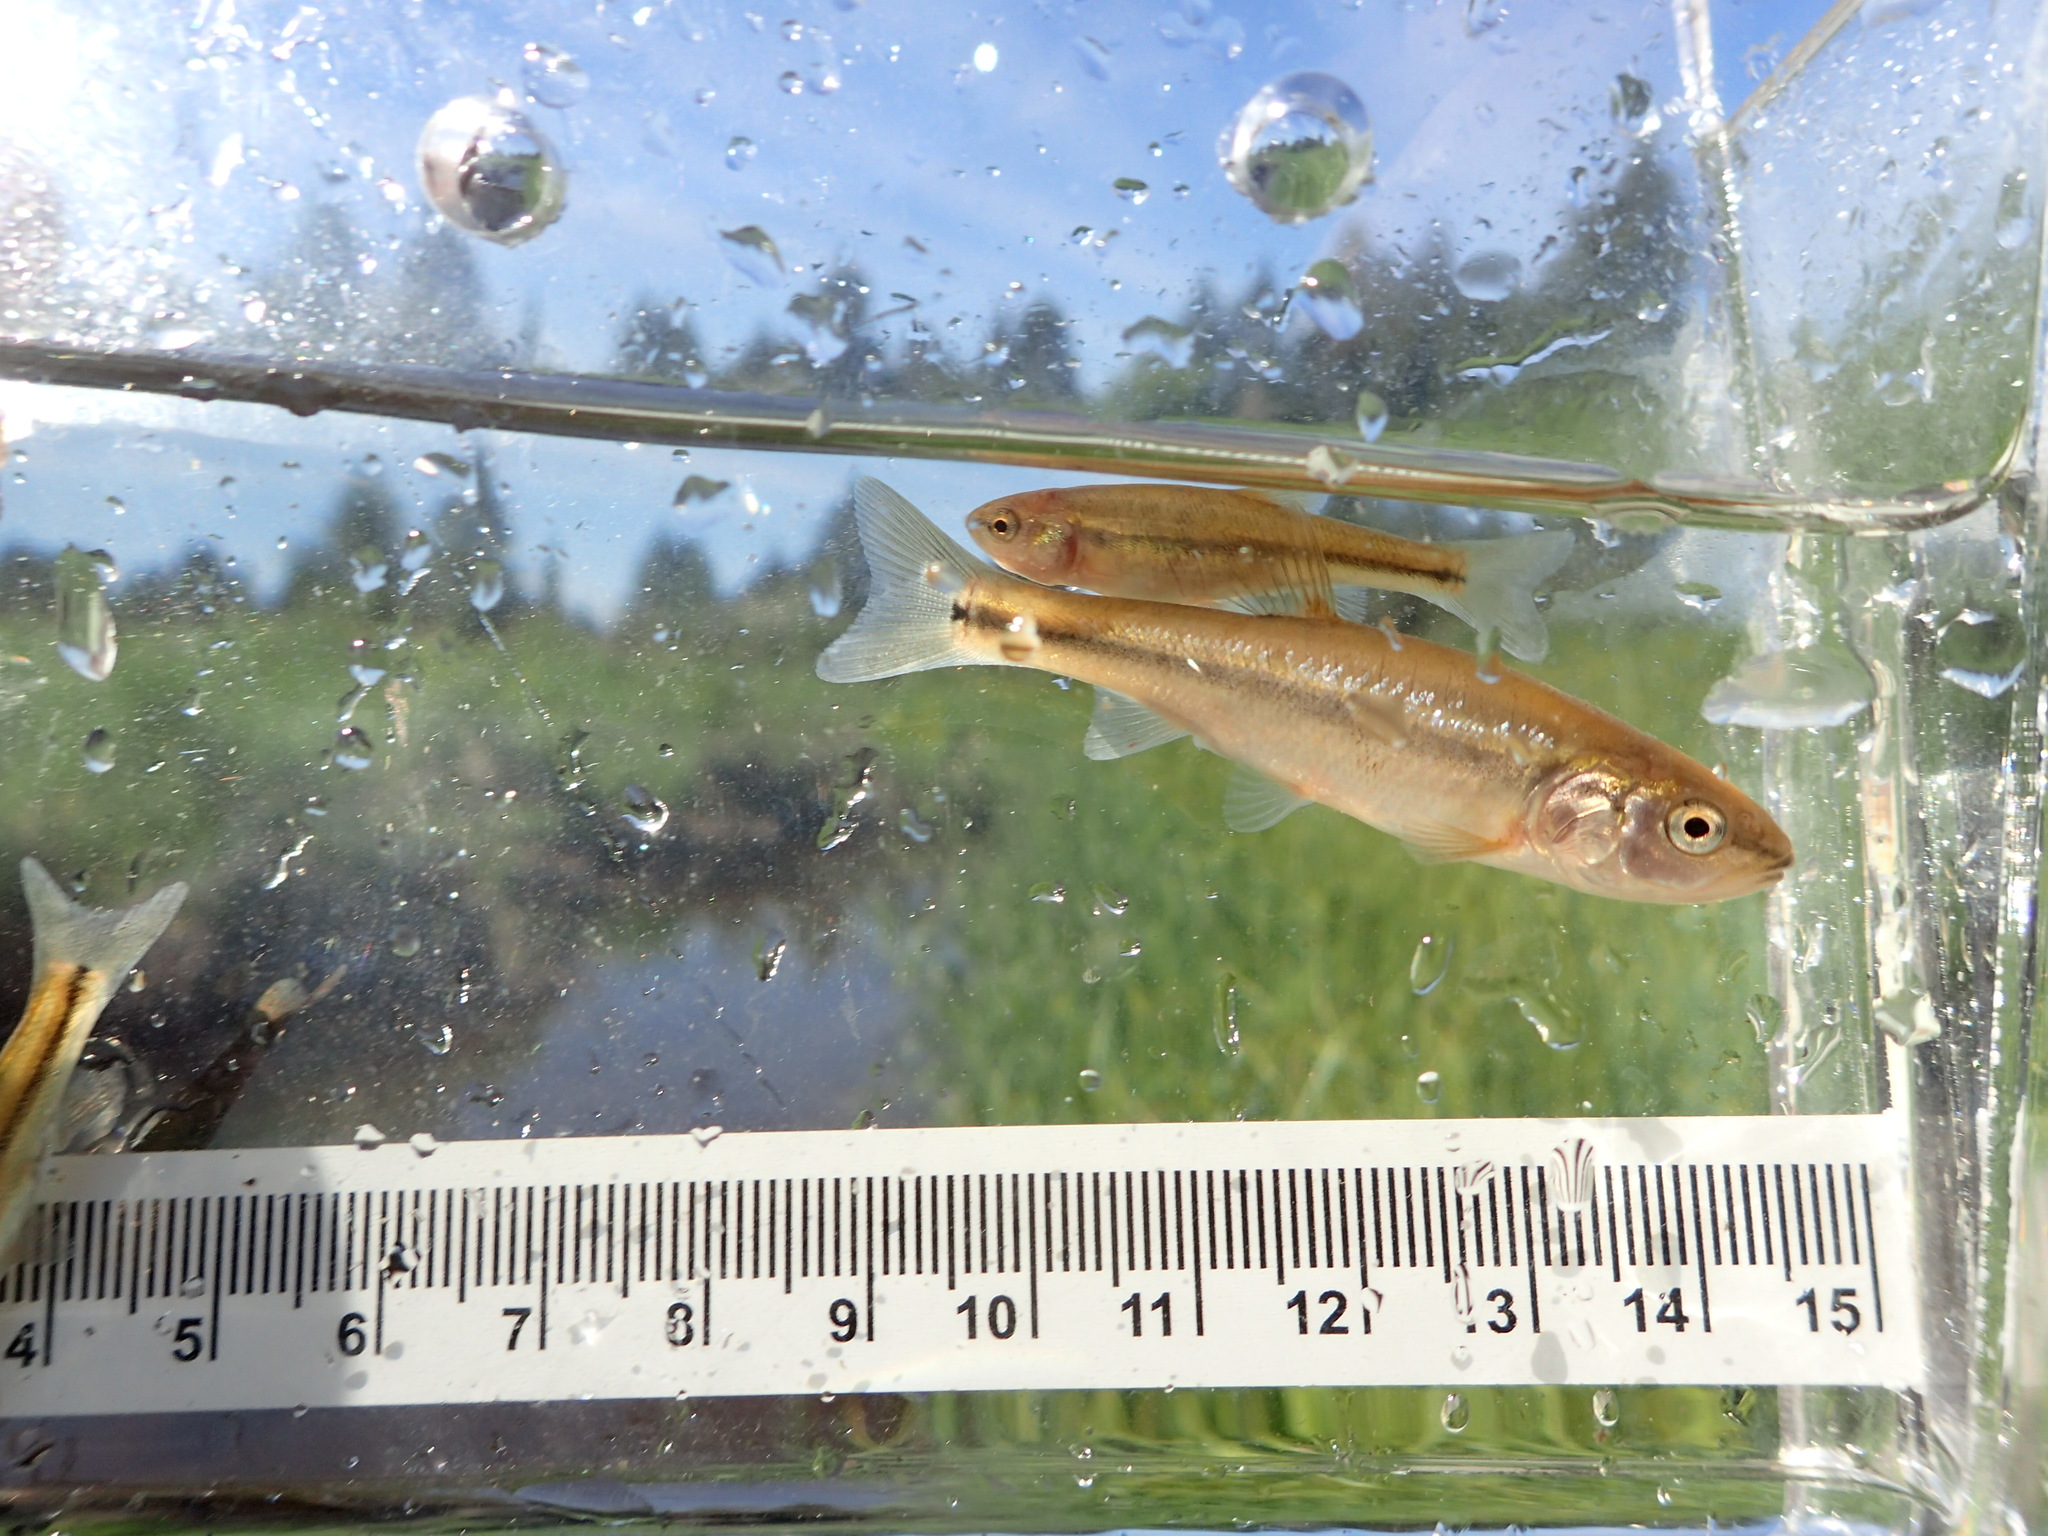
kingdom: Animalia
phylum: Chordata
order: Cypriniformes
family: Cyprinidae
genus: Semotilus
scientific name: Semotilus atromaculatus
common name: Creek chub
